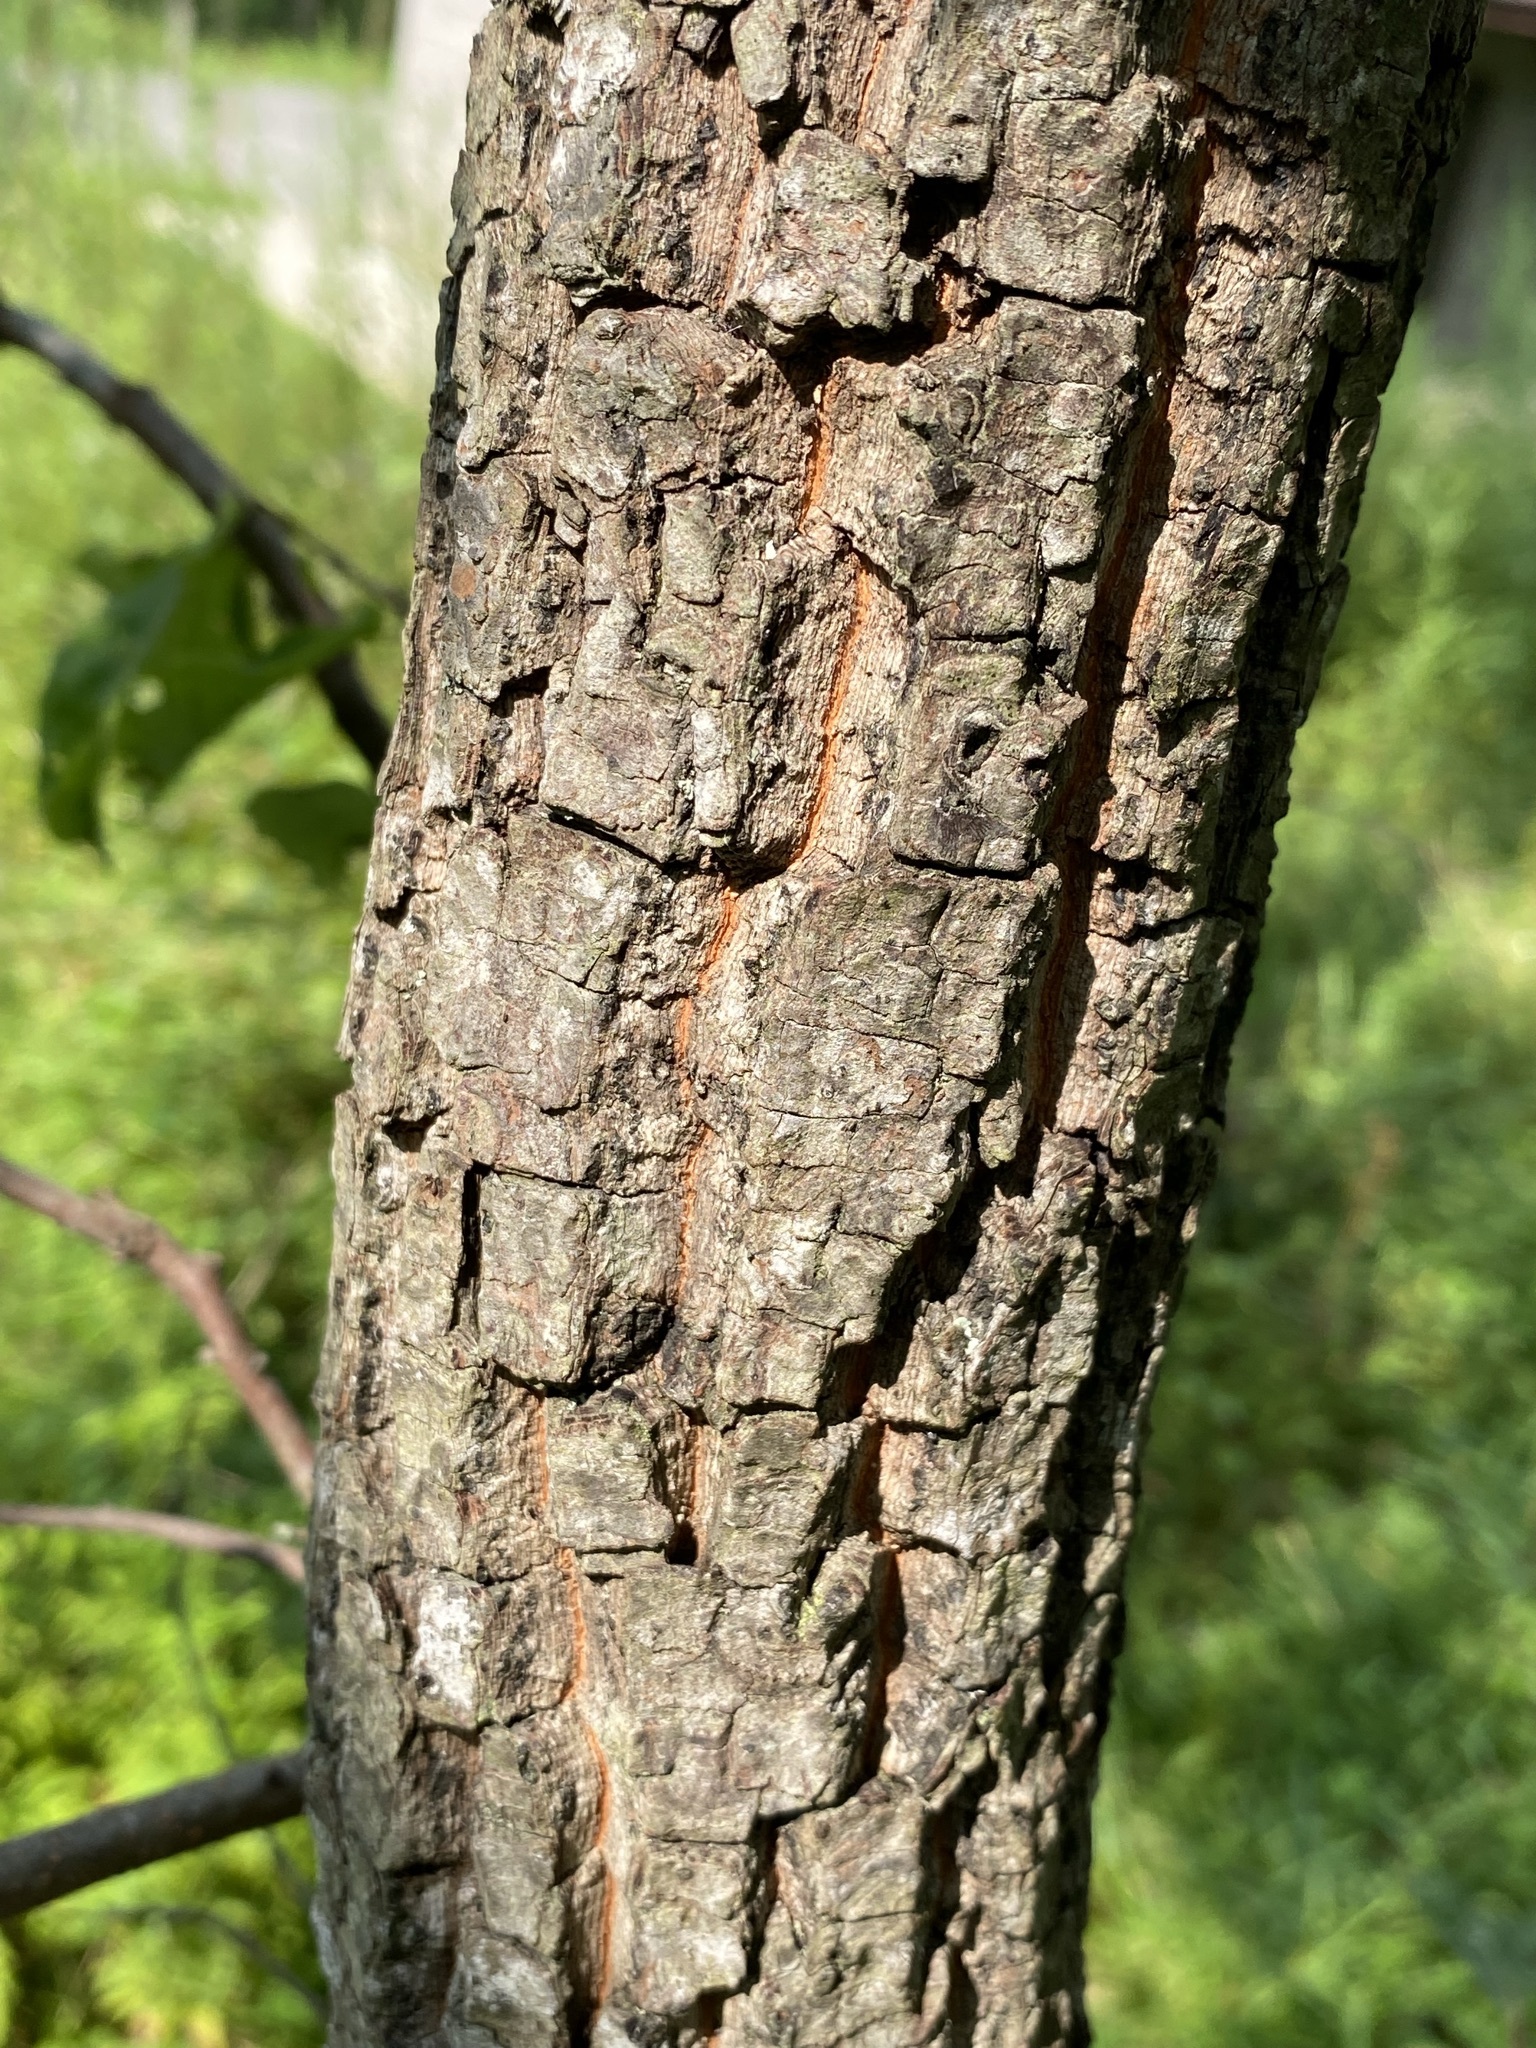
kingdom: Plantae
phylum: Tracheophyta
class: Magnoliopsida
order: Ericales
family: Ebenaceae
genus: Diospyros
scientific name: Diospyros virginiana
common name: Persimmon
